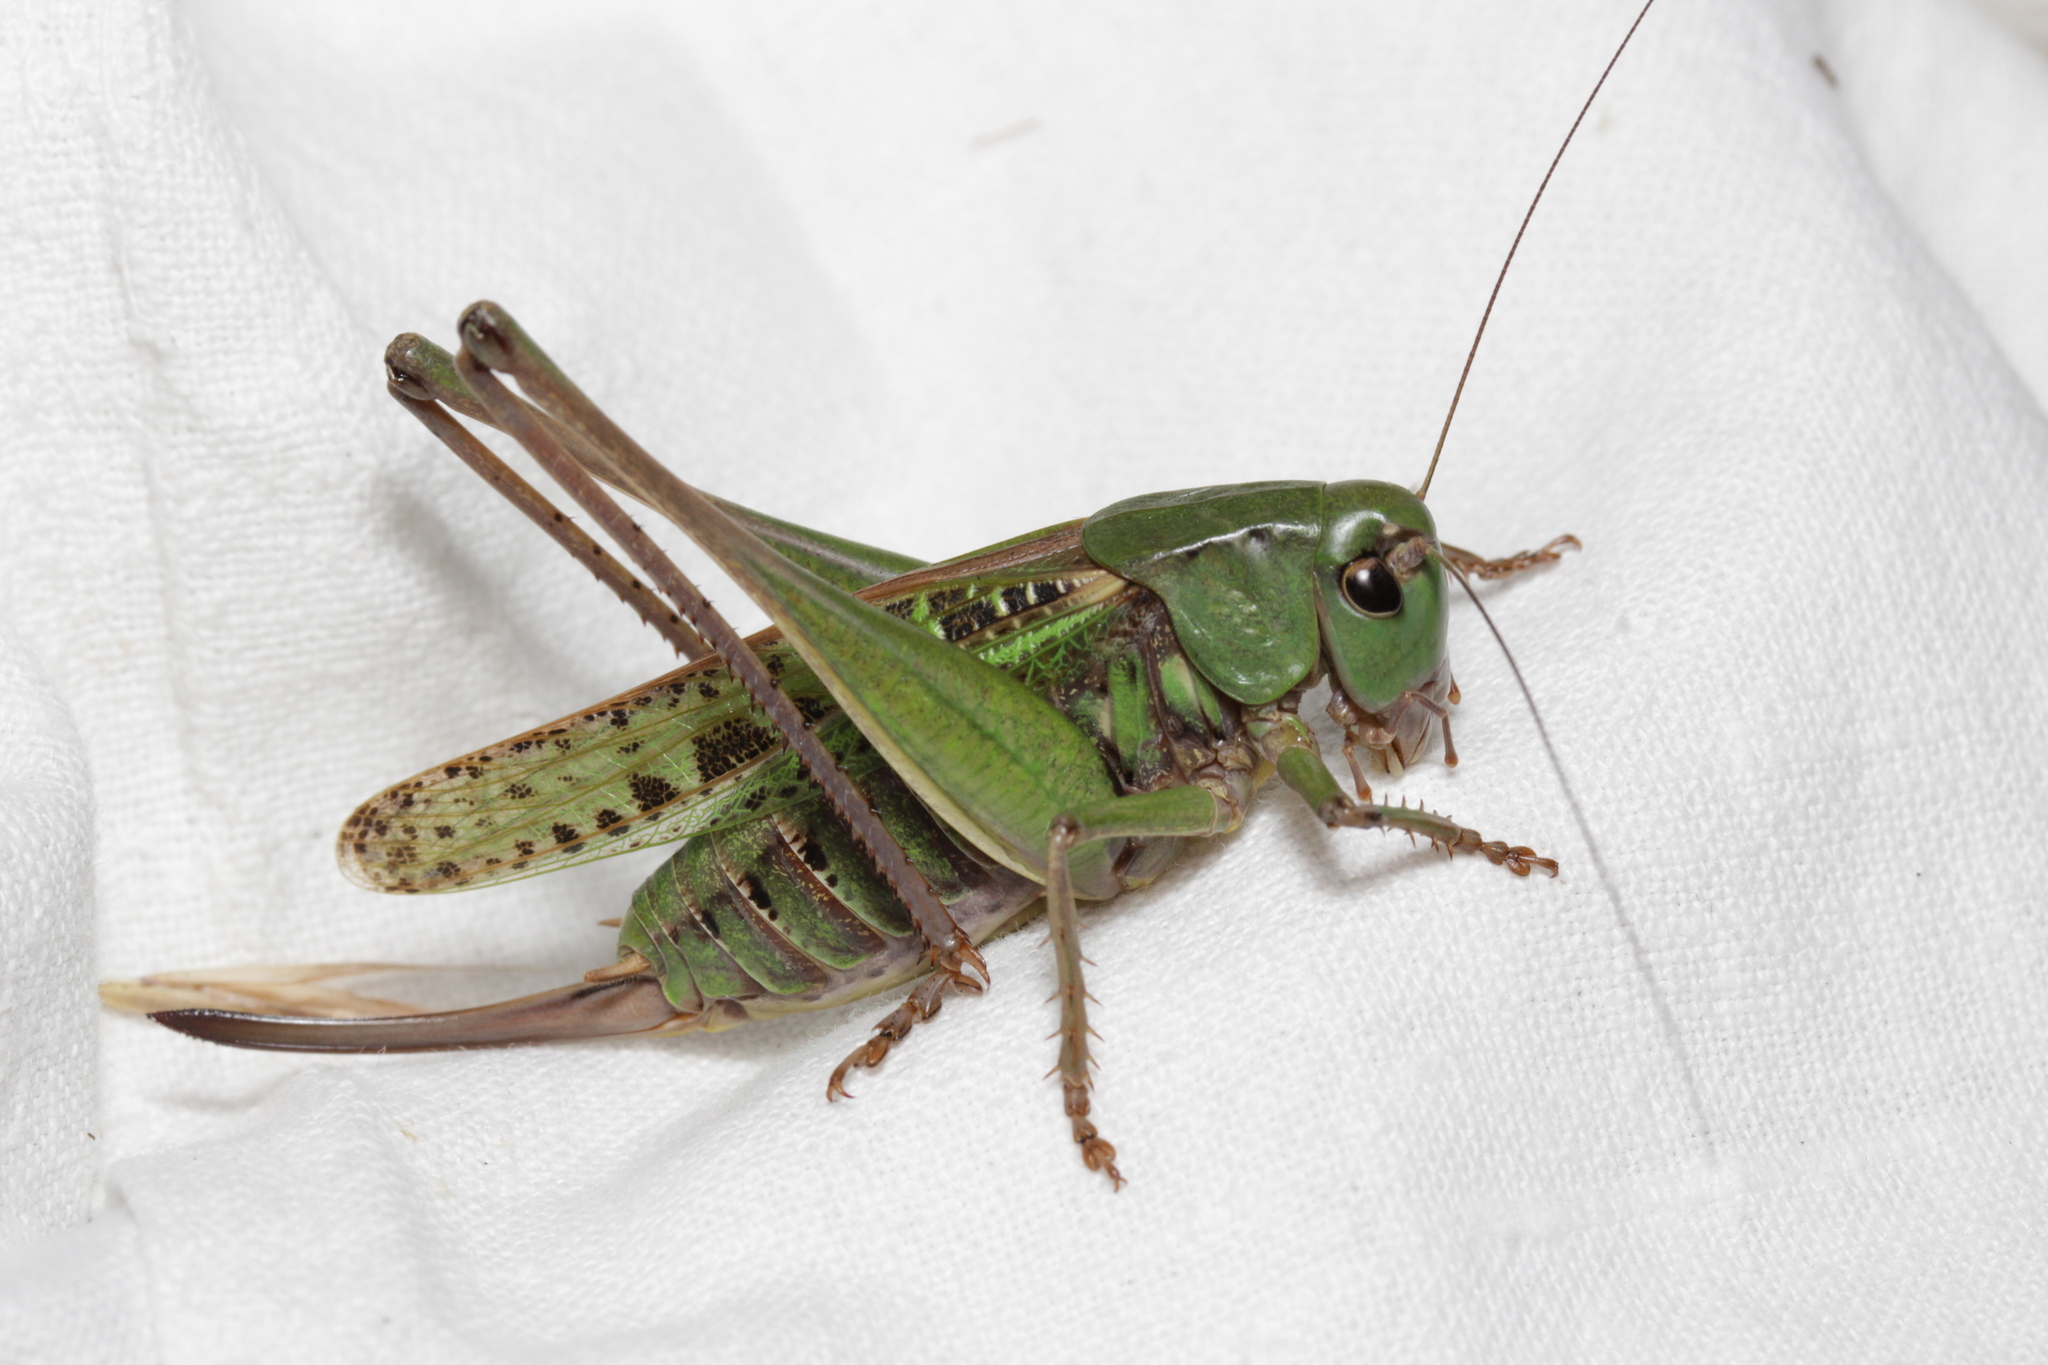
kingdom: Animalia
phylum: Arthropoda
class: Insecta
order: Orthoptera
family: Tettigoniidae
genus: Decticus
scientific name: Decticus verrucivorus
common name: Wart-biter
